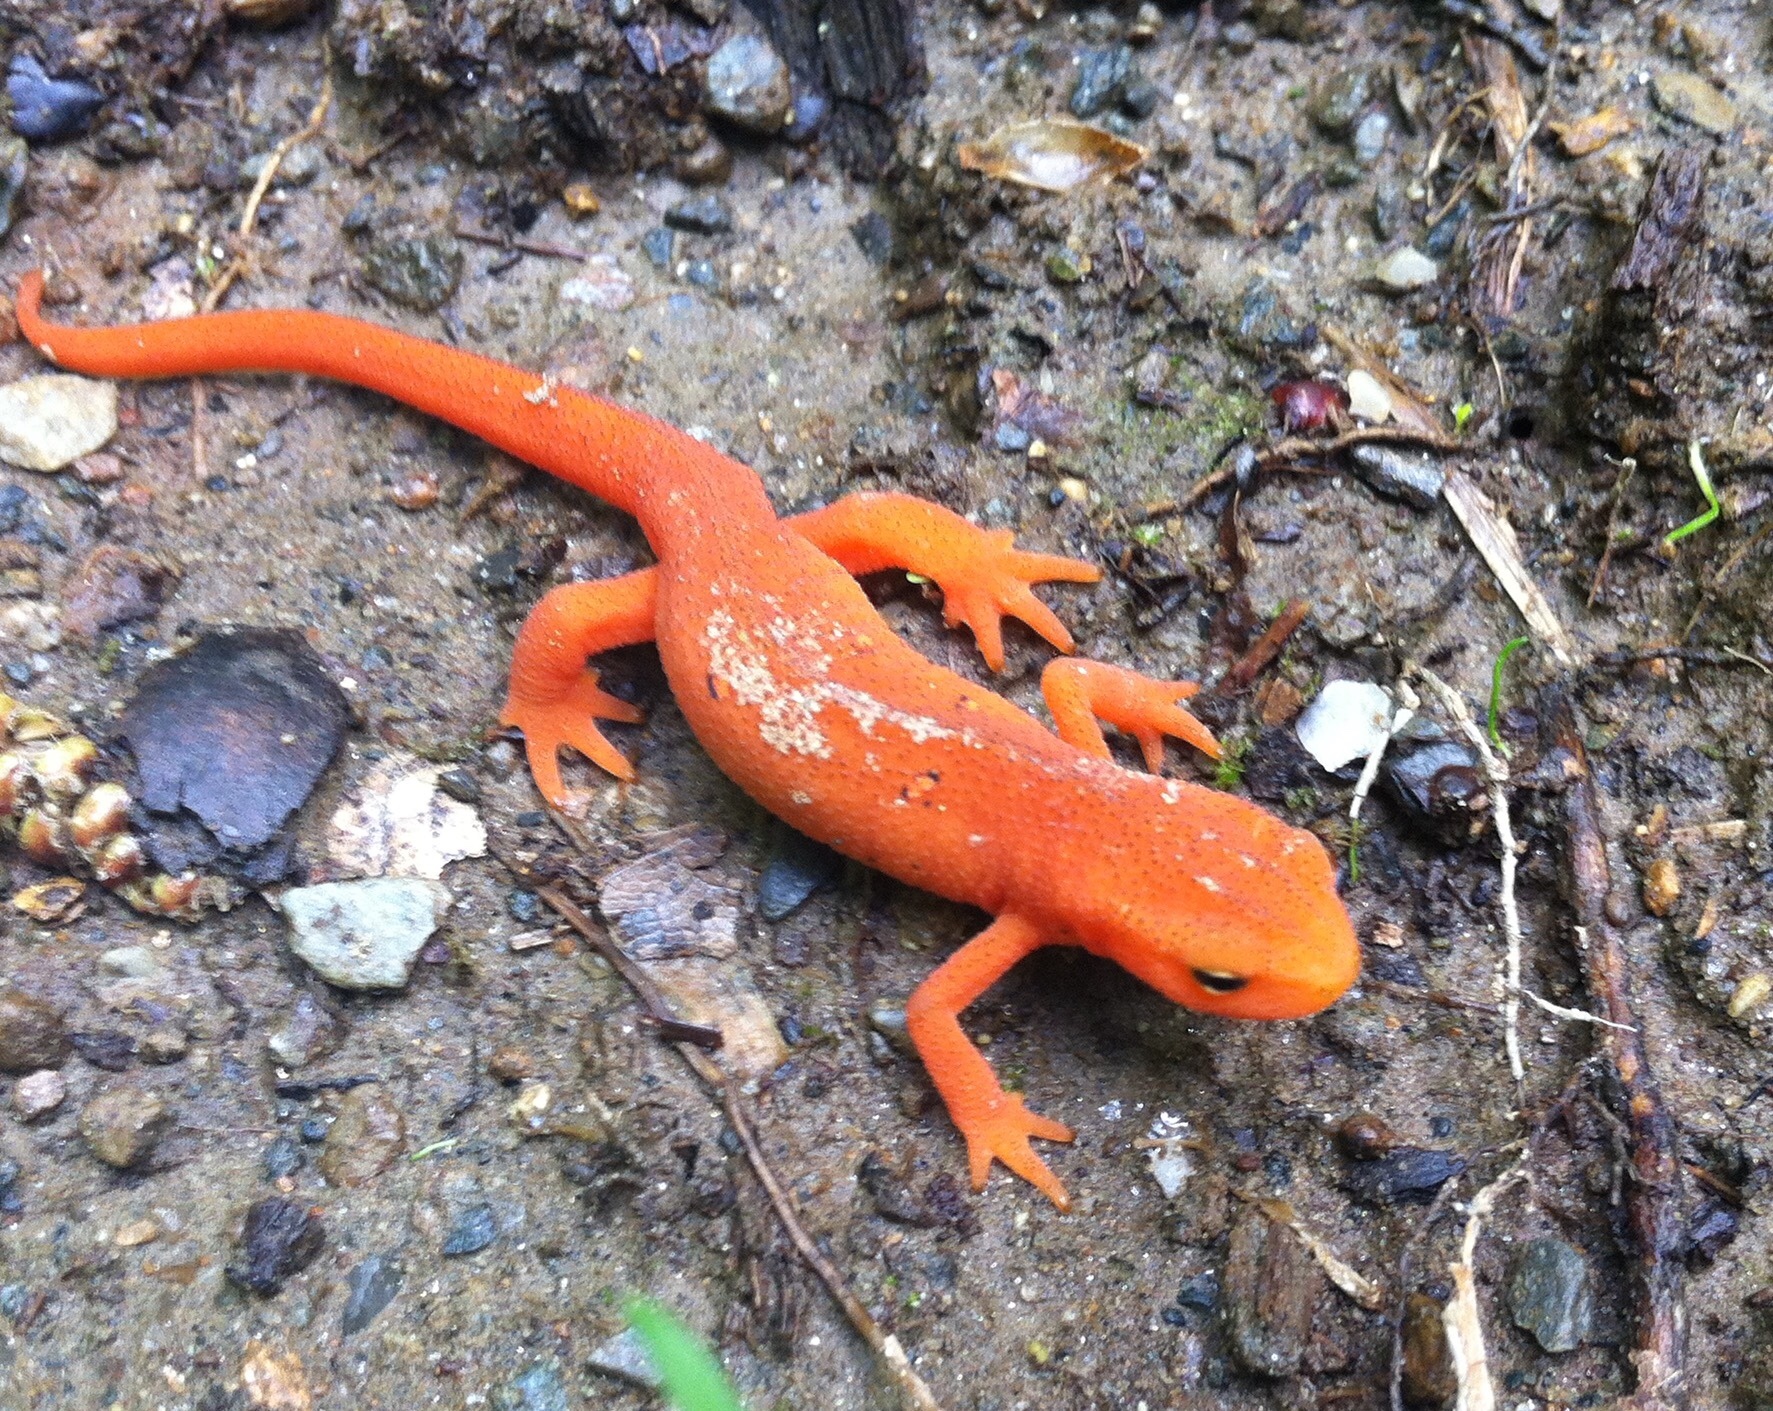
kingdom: Animalia
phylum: Chordata
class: Amphibia
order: Caudata
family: Salamandridae
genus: Notophthalmus
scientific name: Notophthalmus viridescens
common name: Eastern newt
